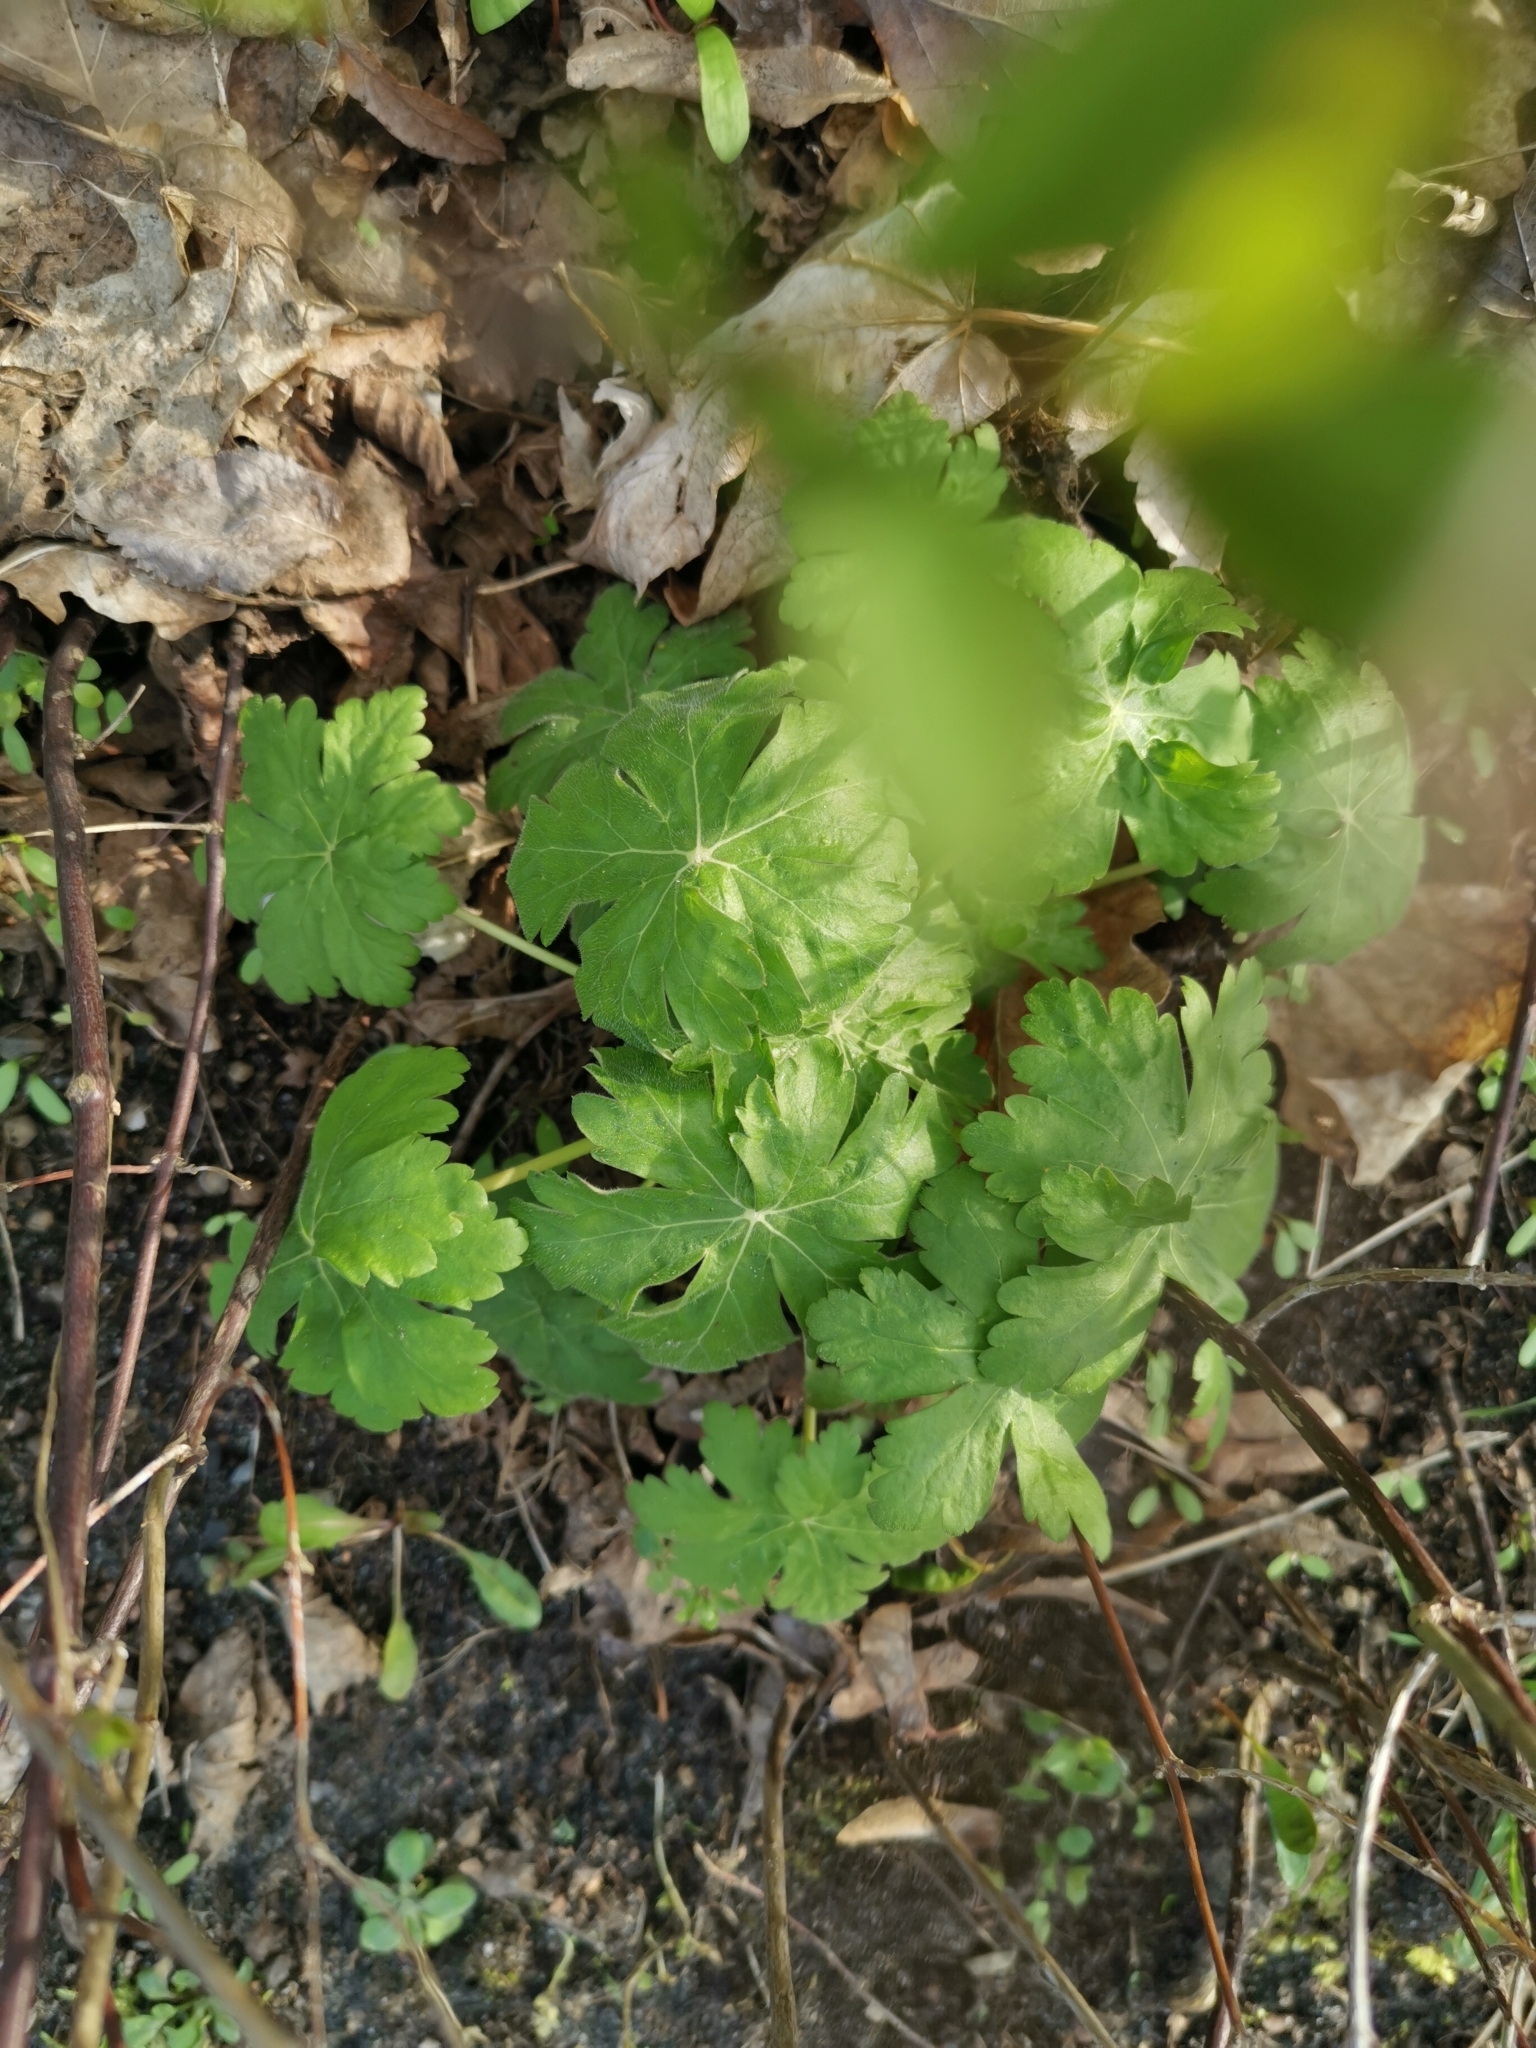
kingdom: Plantae
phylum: Tracheophyta
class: Magnoliopsida
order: Geraniales
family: Geraniaceae
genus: Geranium
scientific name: Geranium macrorrhizum
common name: Rock crane's-bill
